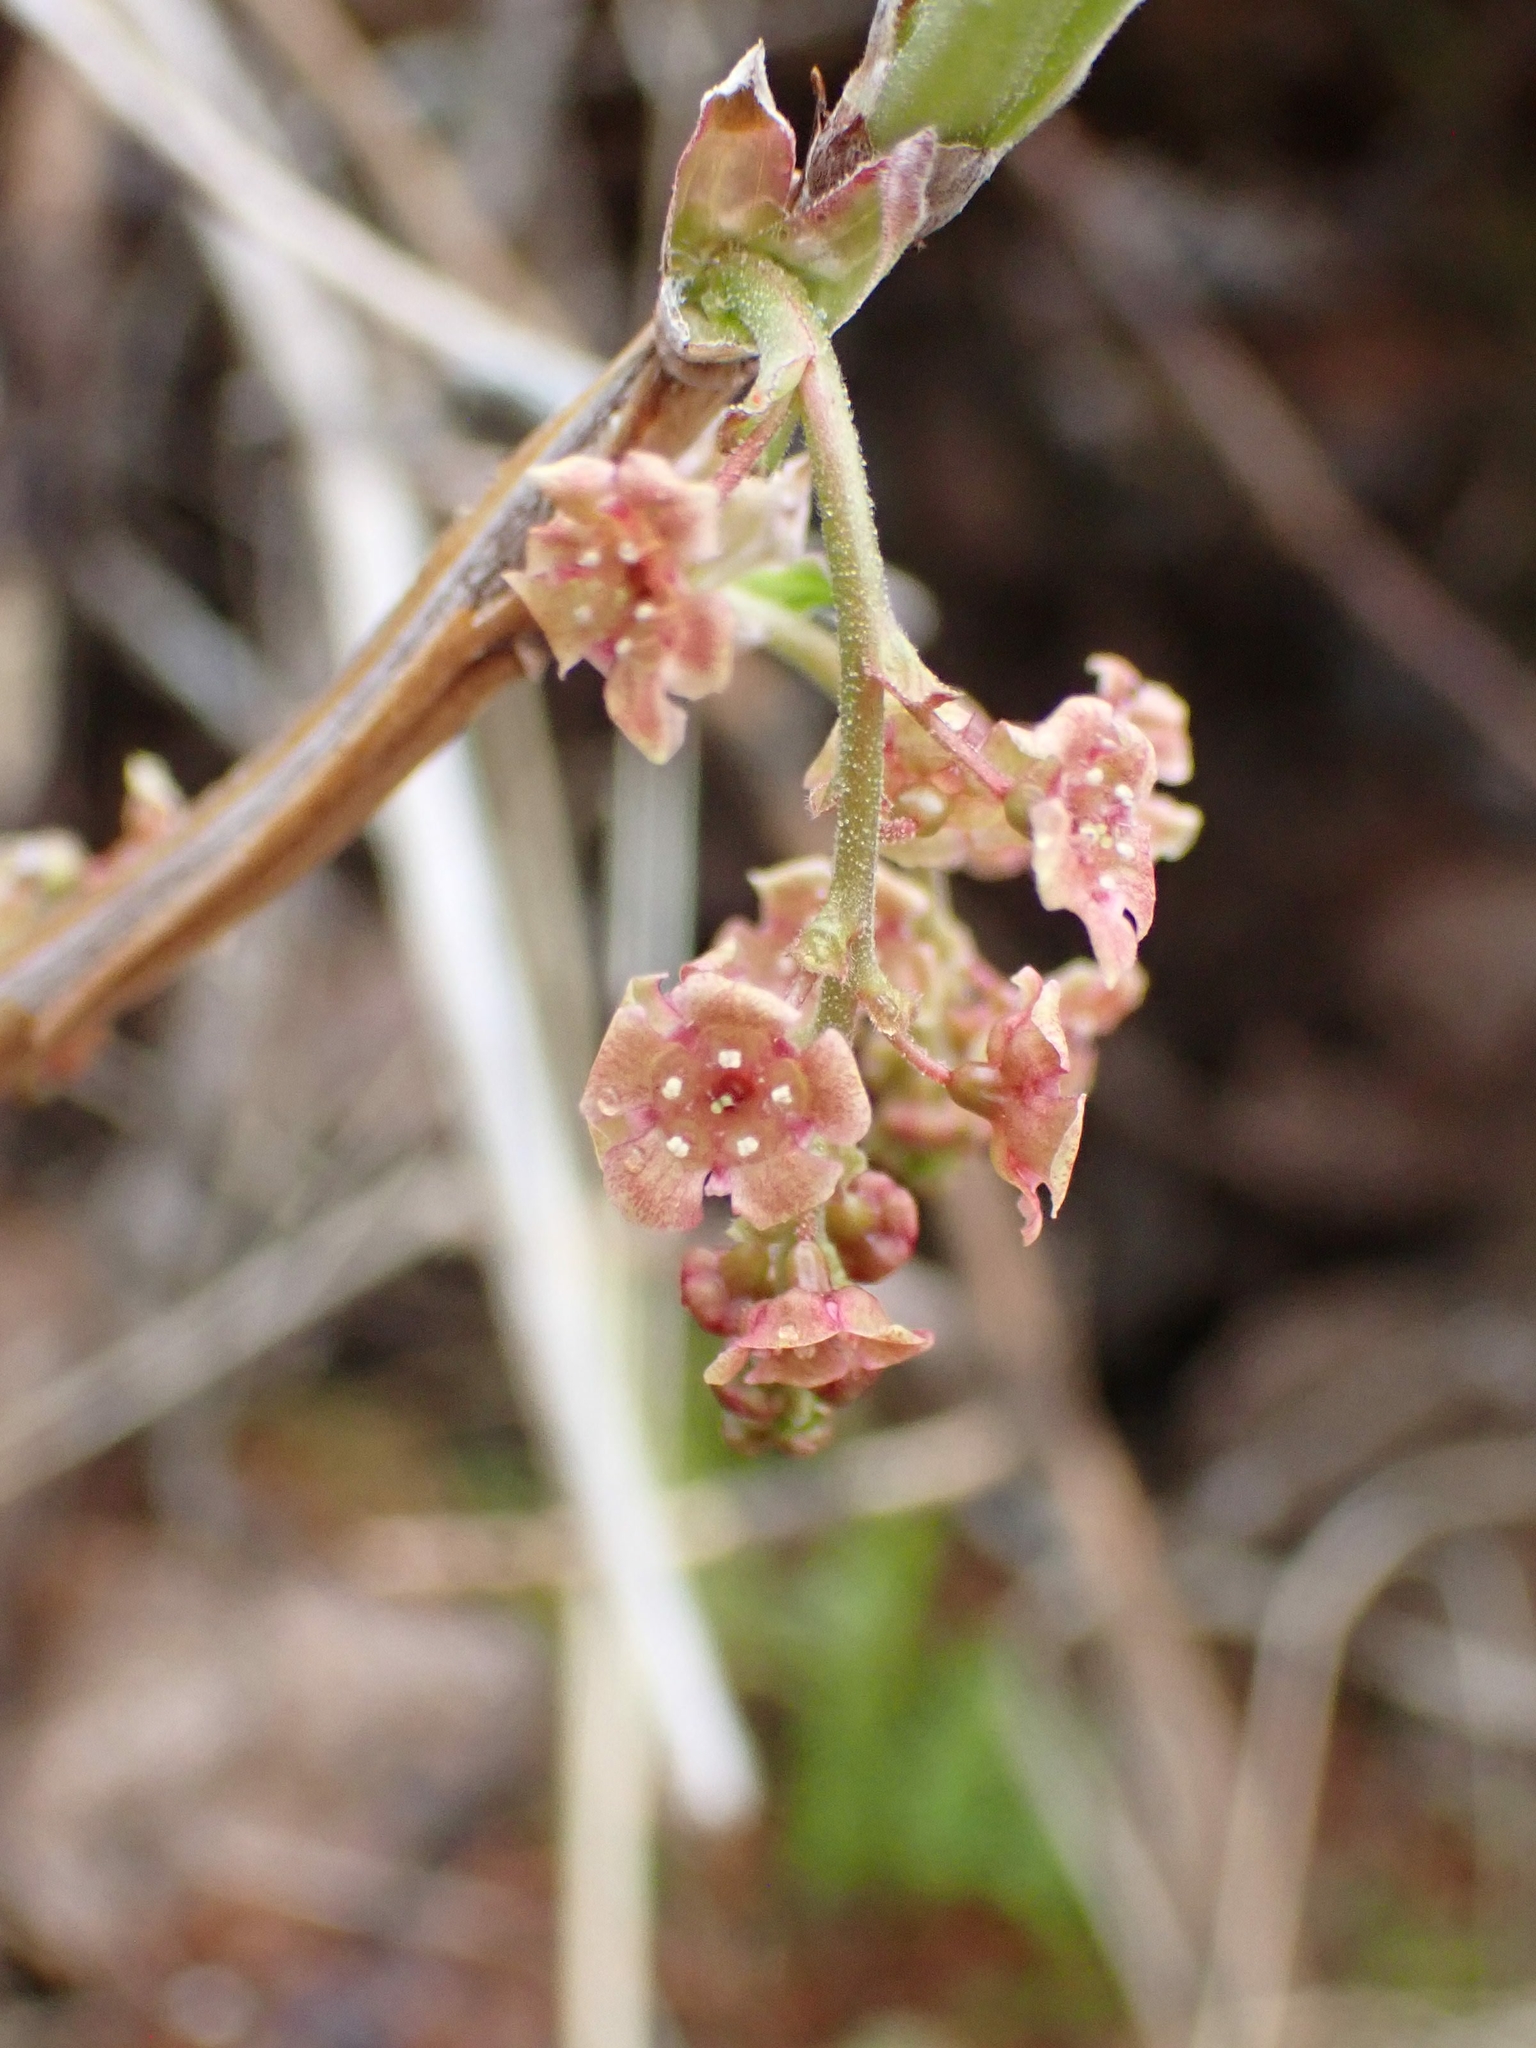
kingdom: Plantae
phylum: Tracheophyta
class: Magnoliopsida
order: Saxifragales
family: Grossulariaceae
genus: Ribes
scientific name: Ribes triste
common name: Swamp red currant
